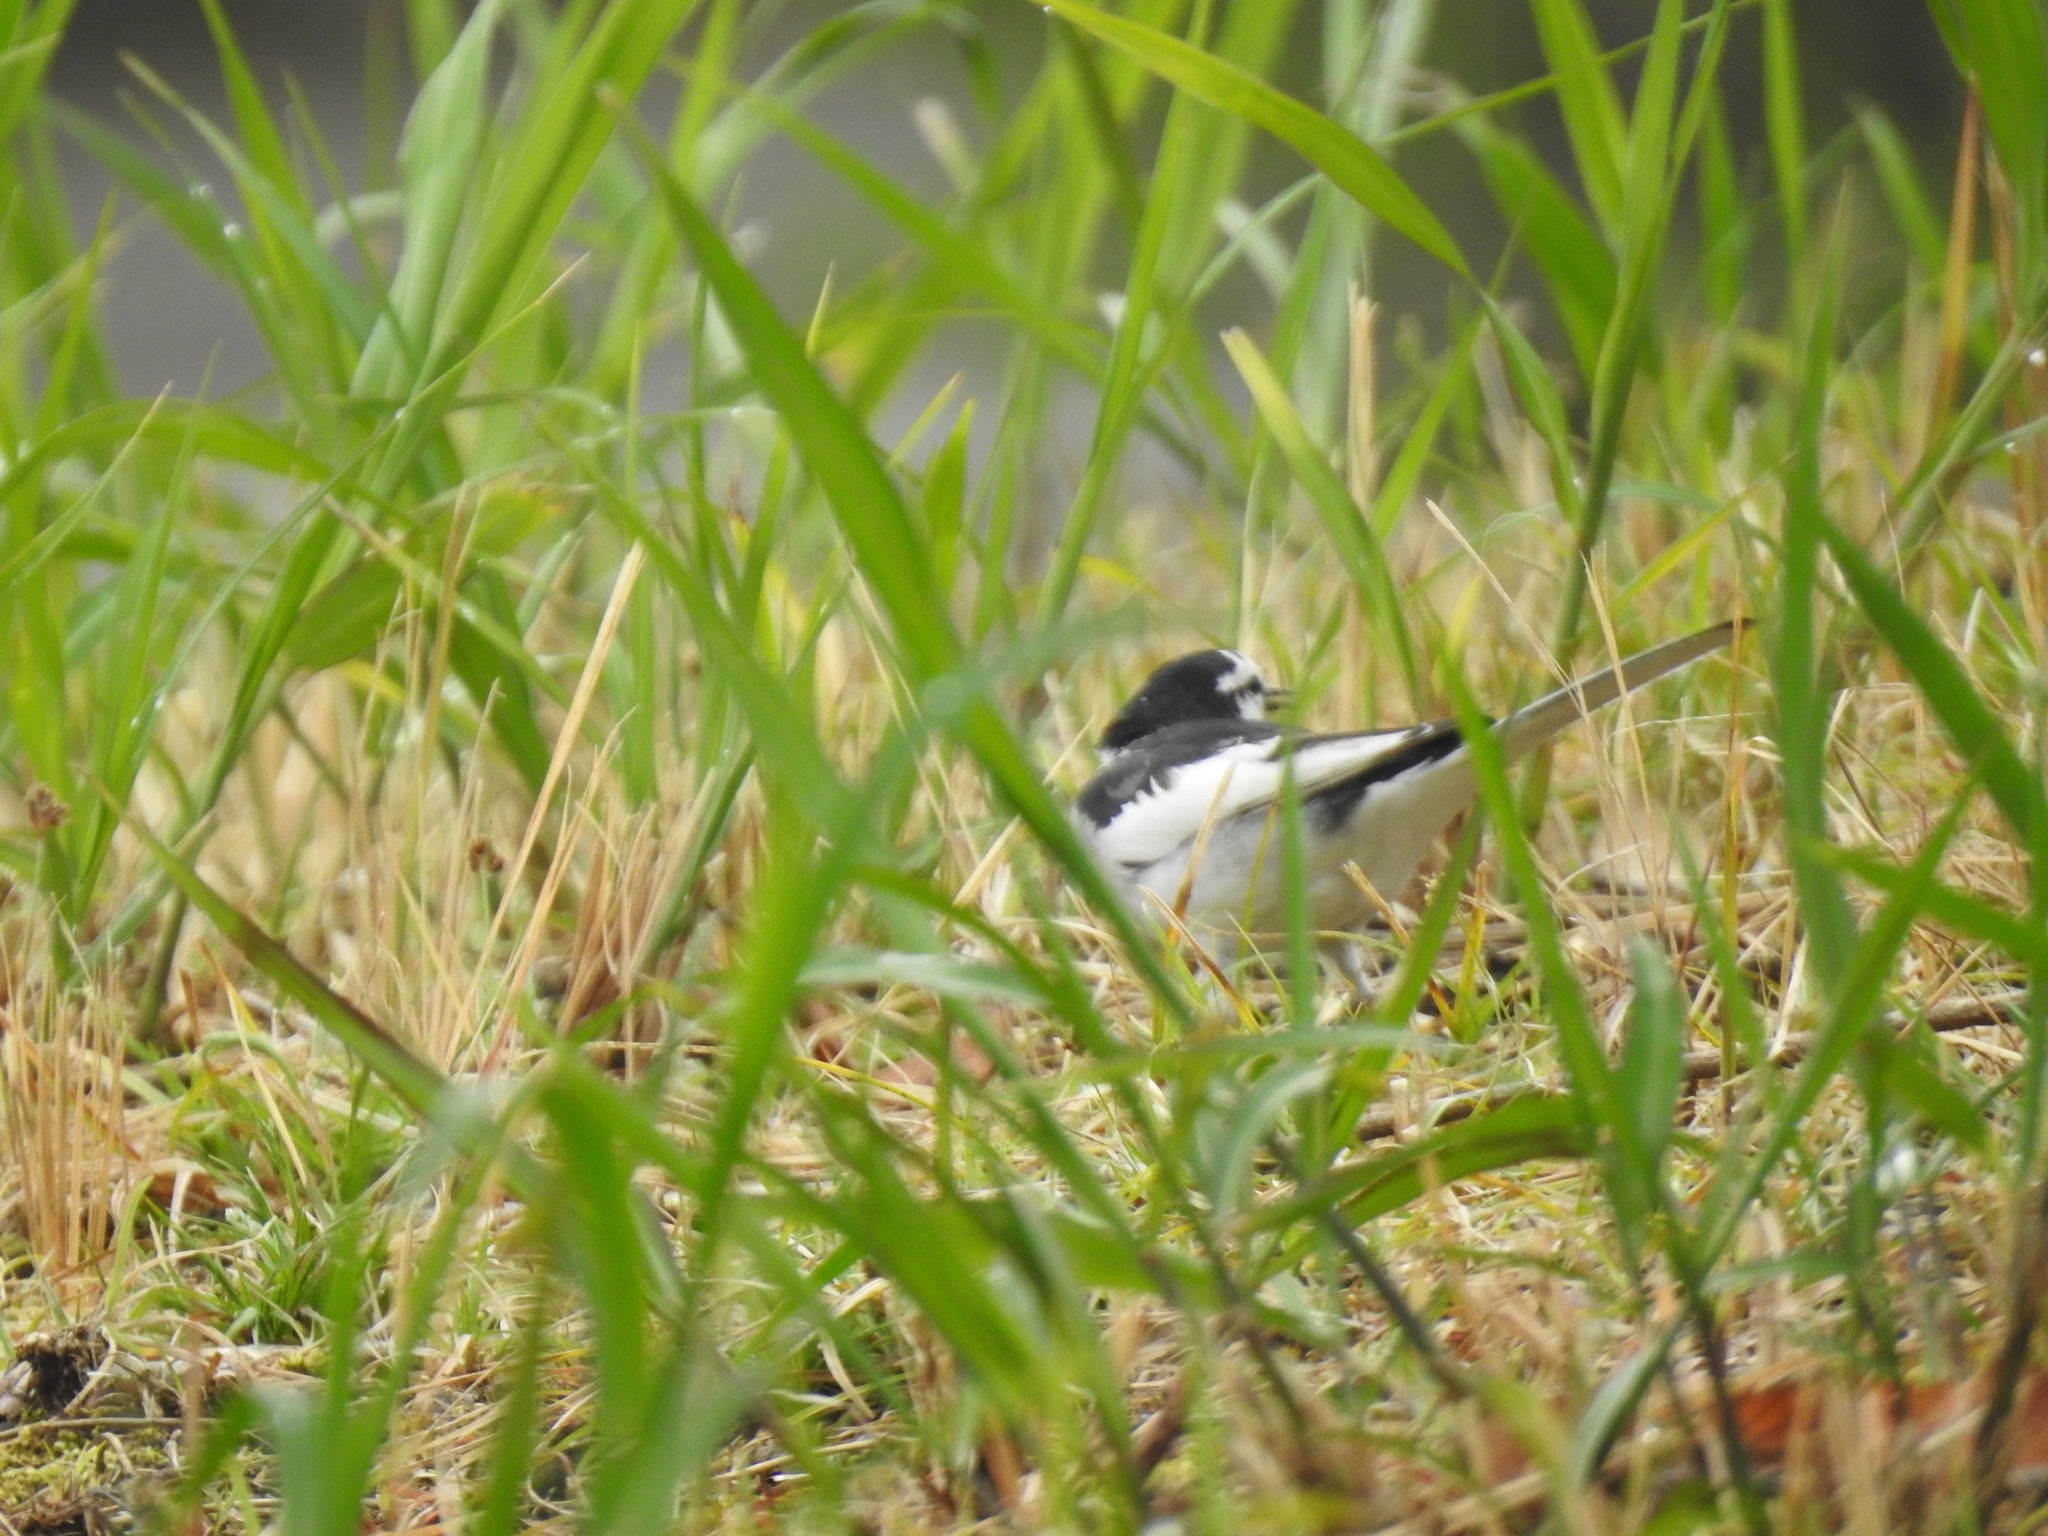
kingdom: Animalia
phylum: Chordata
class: Aves
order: Passeriformes
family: Motacillidae
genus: Motacilla
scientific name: Motacilla alba
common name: White wagtail
